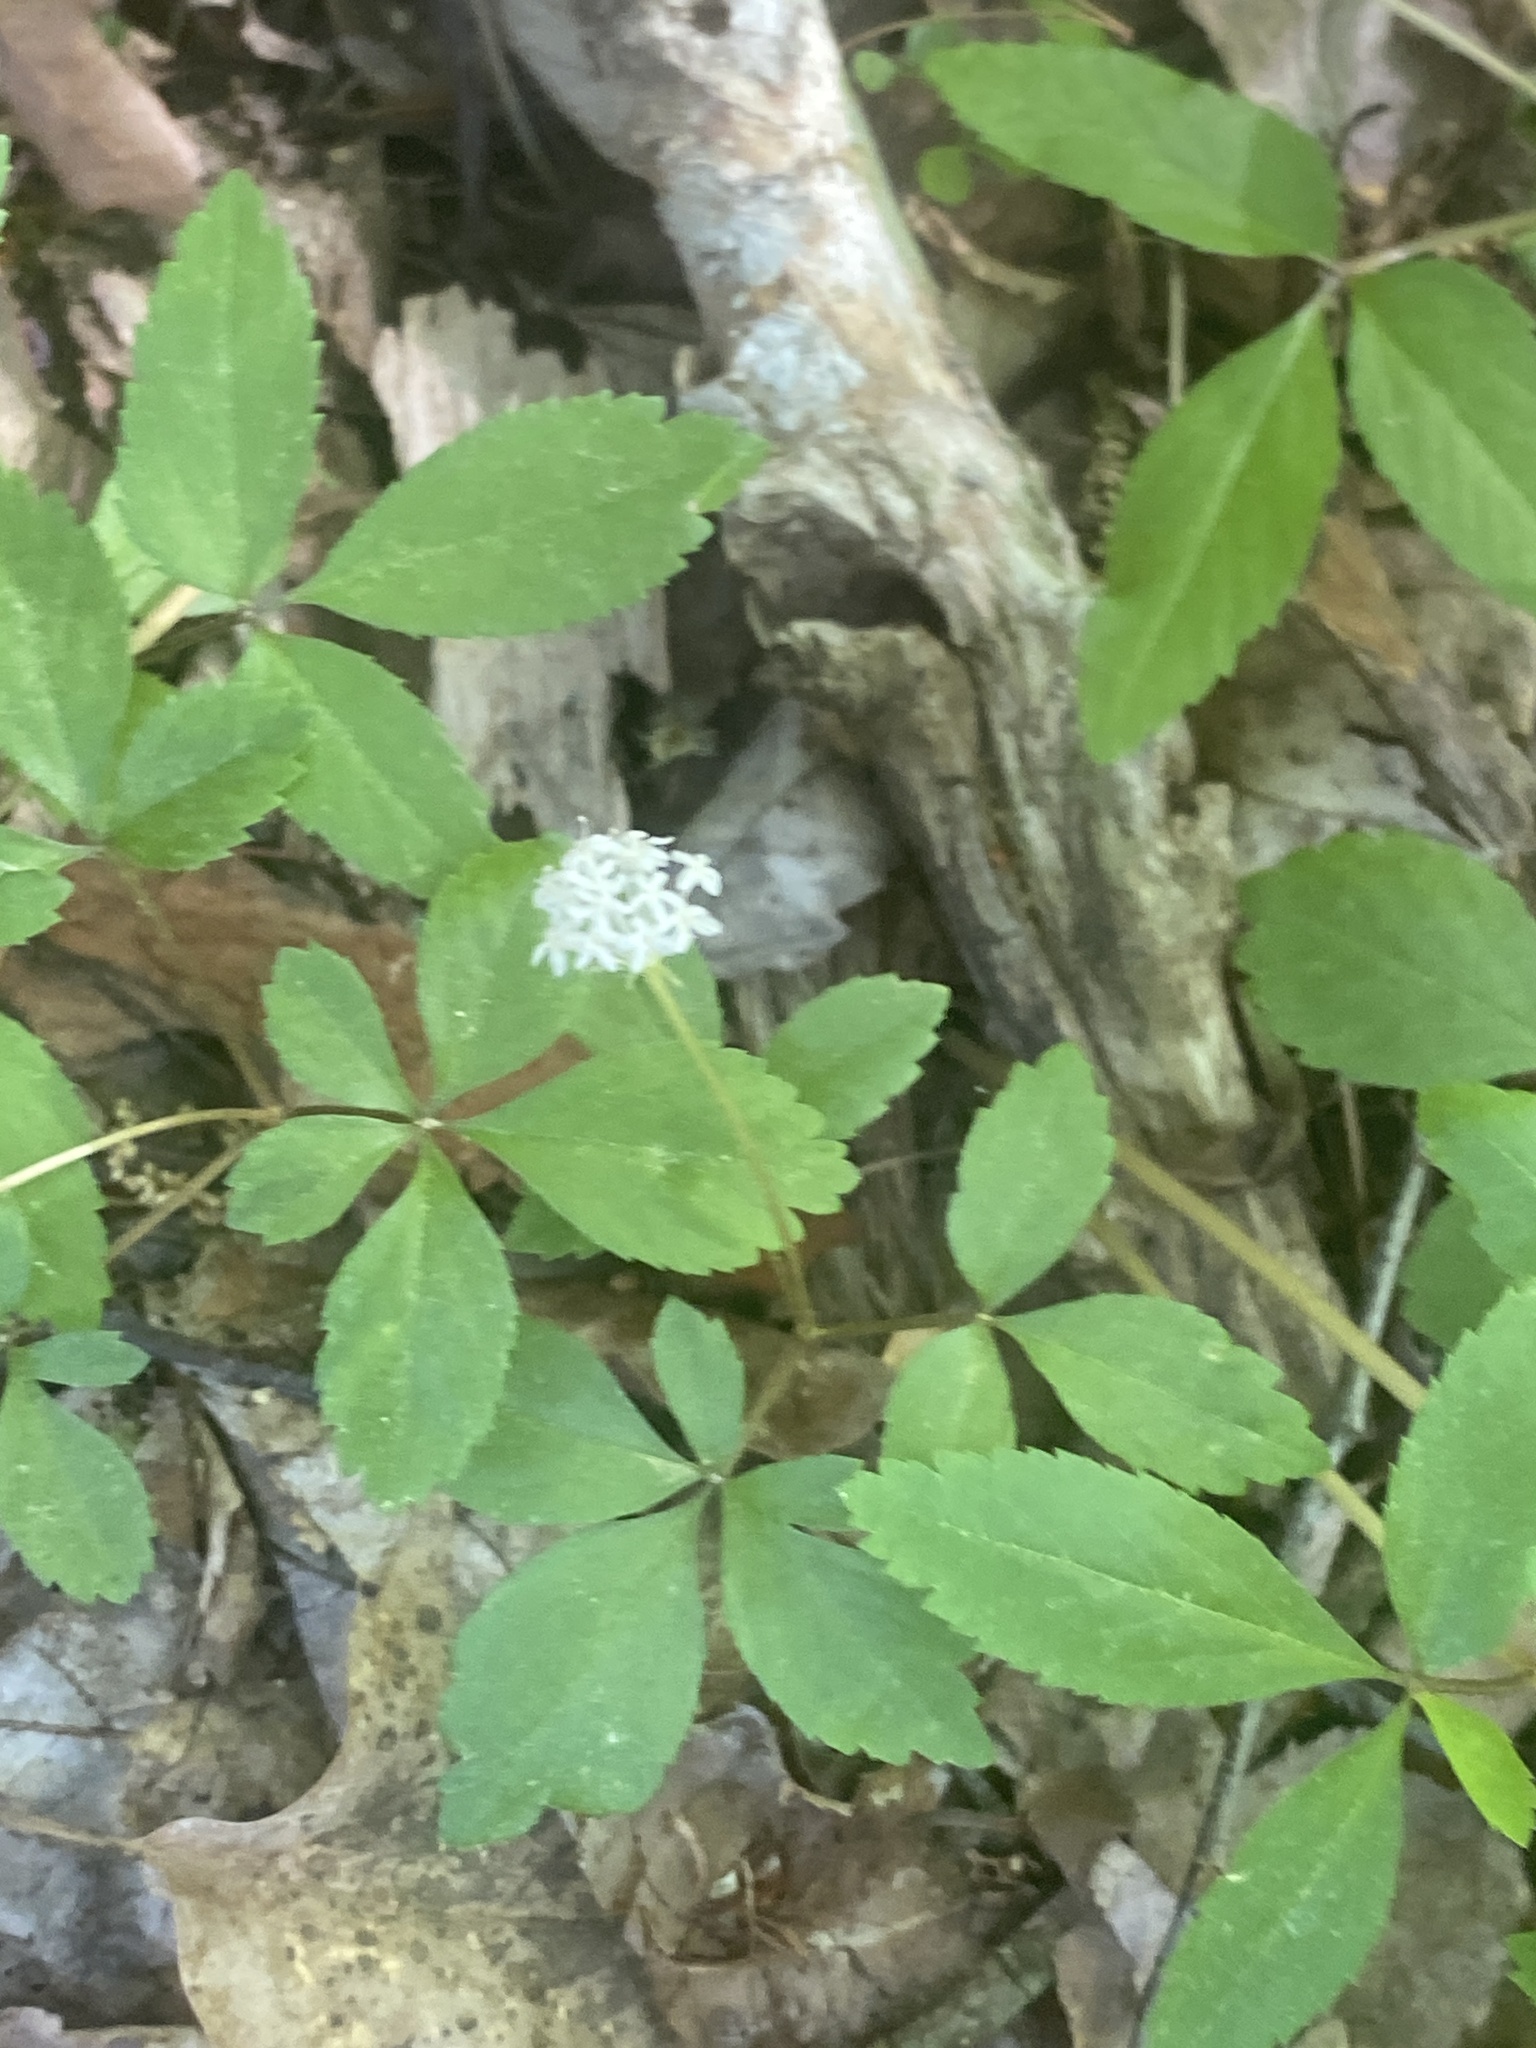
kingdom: Plantae
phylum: Tracheophyta
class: Magnoliopsida
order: Apiales
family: Araliaceae
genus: Panax
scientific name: Panax trifolius
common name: Dwarf ginseng
